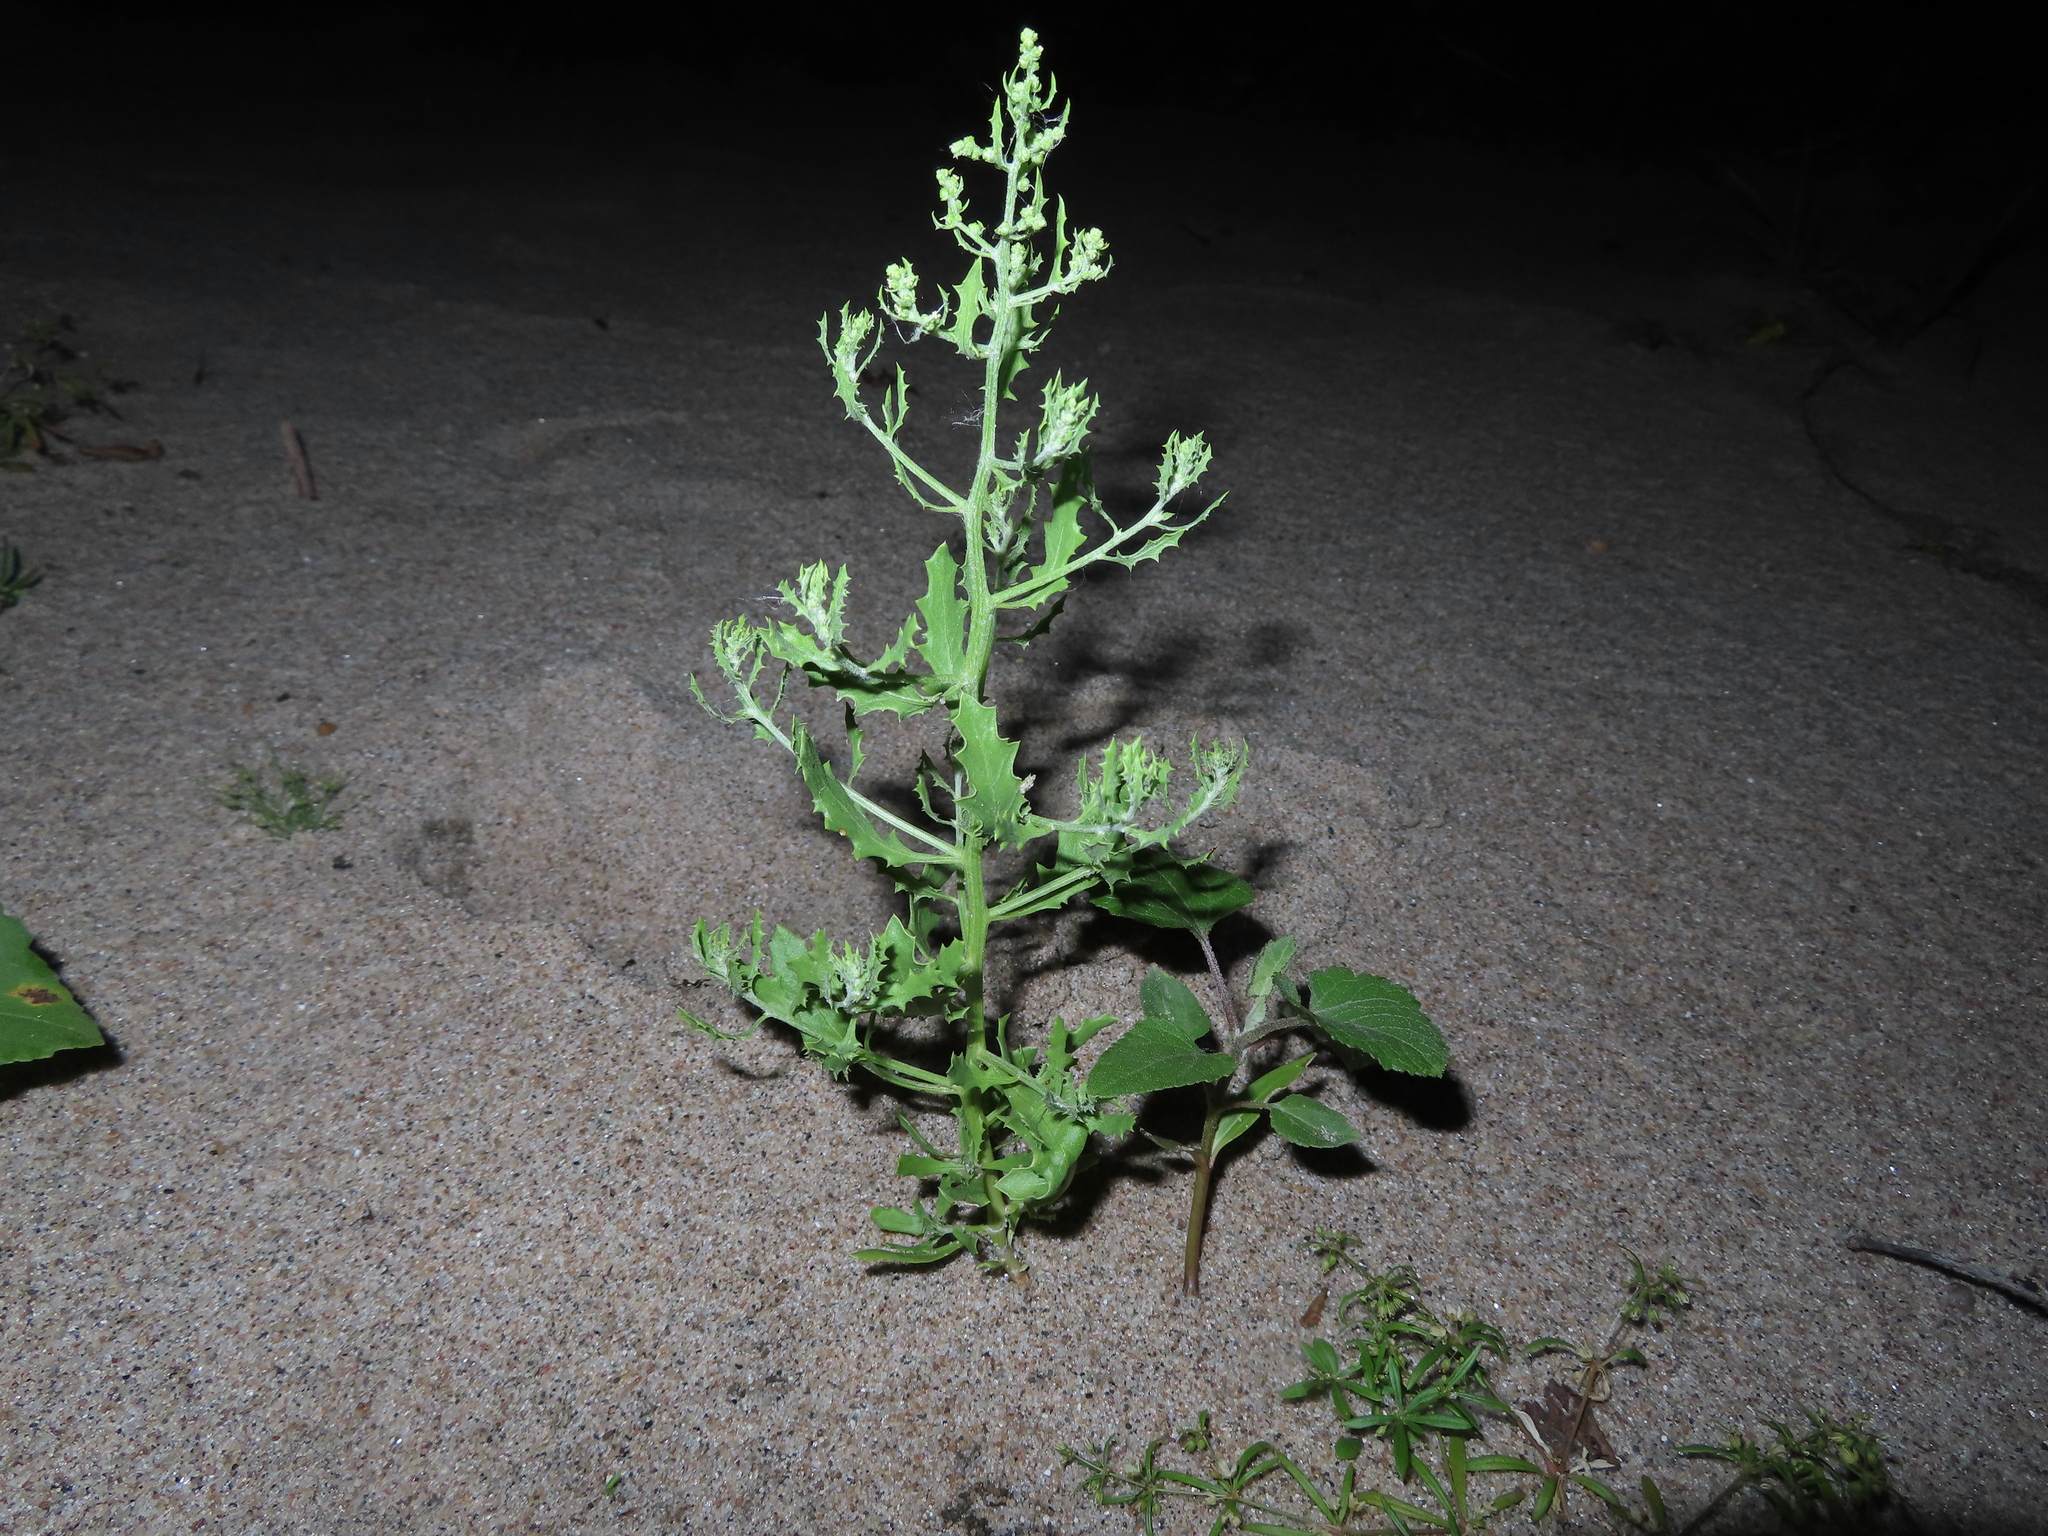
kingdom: Plantae
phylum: Tracheophyta
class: Magnoliopsida
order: Caryophyllales
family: Amaranthaceae
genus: Dysphania
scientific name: Dysphania atriplicifolia
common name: Plains tumbleweed
